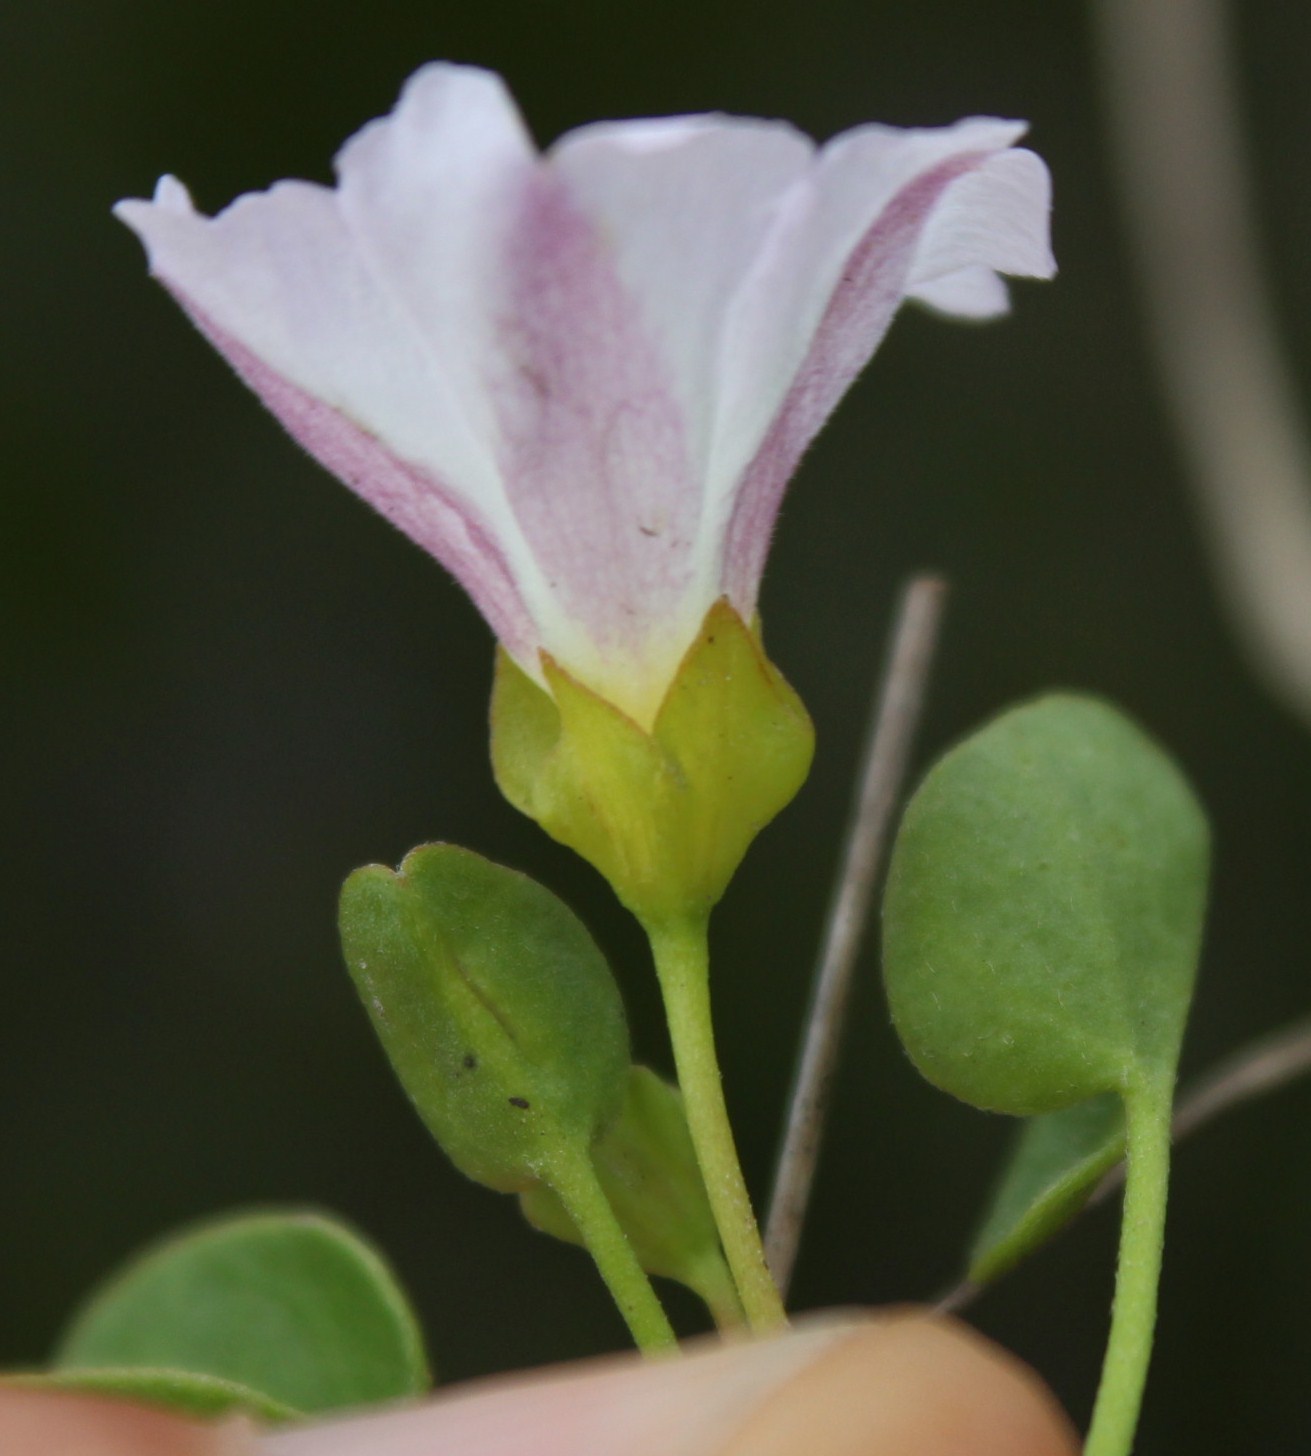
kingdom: Plantae
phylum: Tracheophyta
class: Magnoliopsida
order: Solanales
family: Convolvulaceae
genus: Falkia
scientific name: Falkia repens
